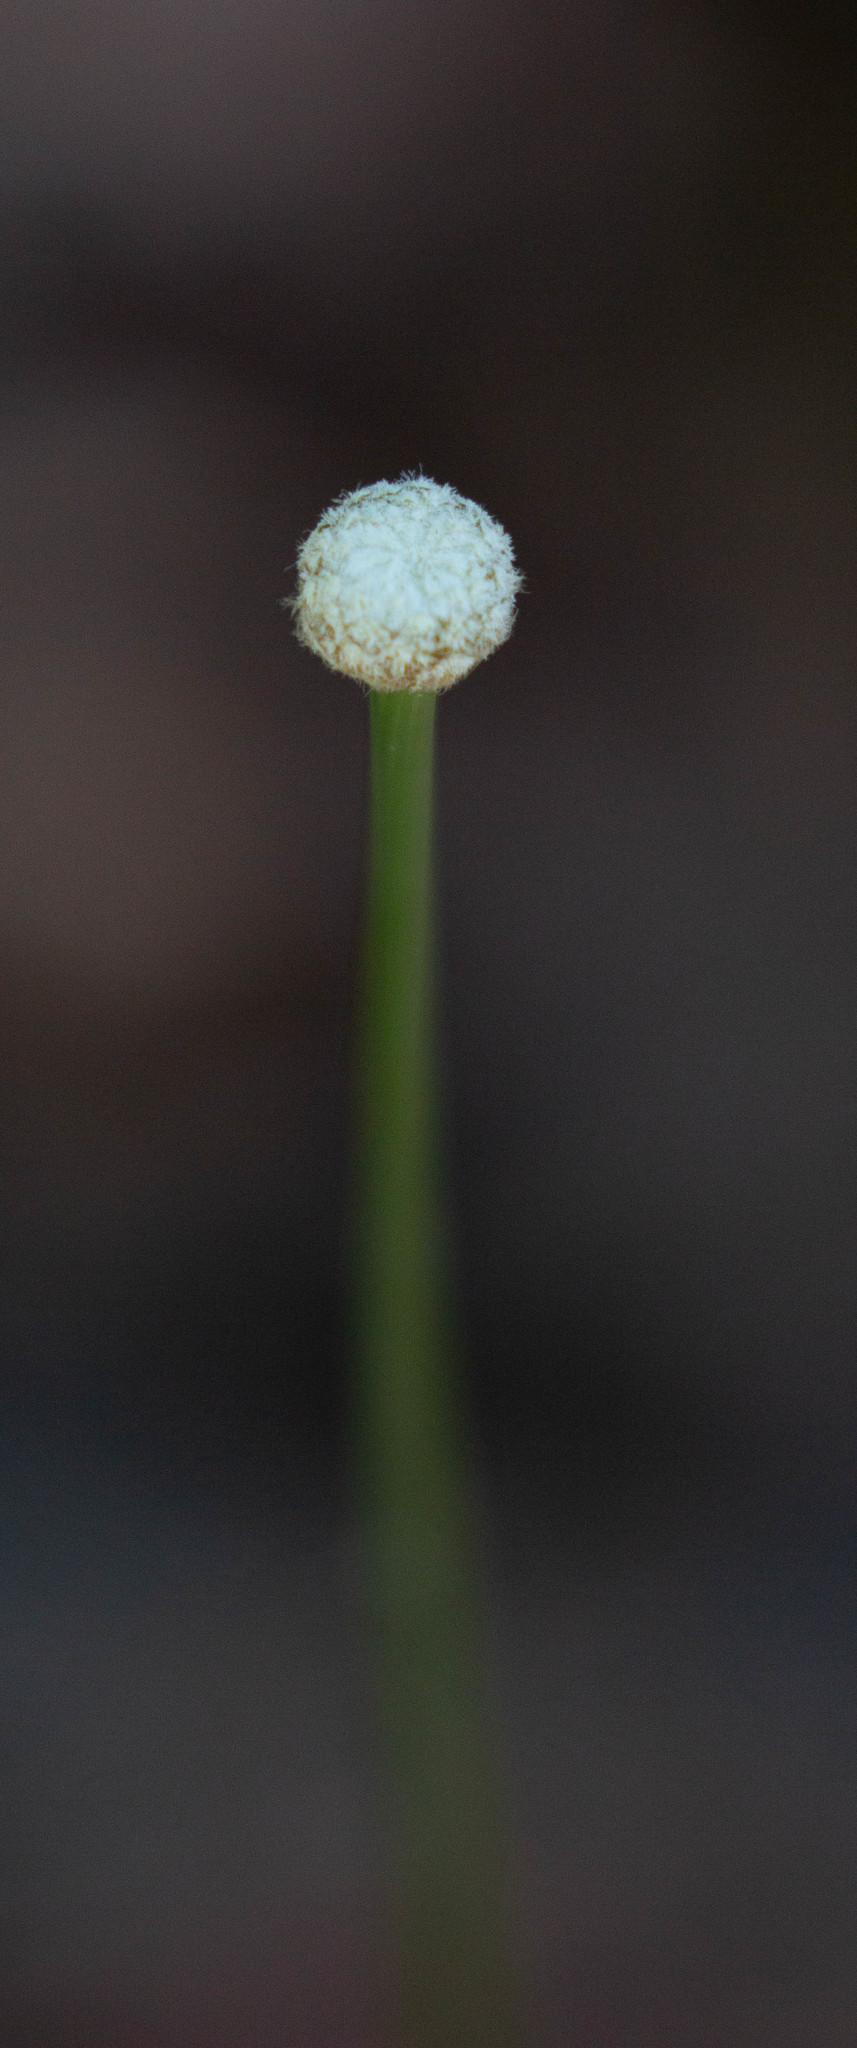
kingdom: Plantae
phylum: Tracheophyta
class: Liliopsida
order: Poales
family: Eriocaulaceae
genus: Eriocaulon
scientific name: Eriocaulon decangulare
